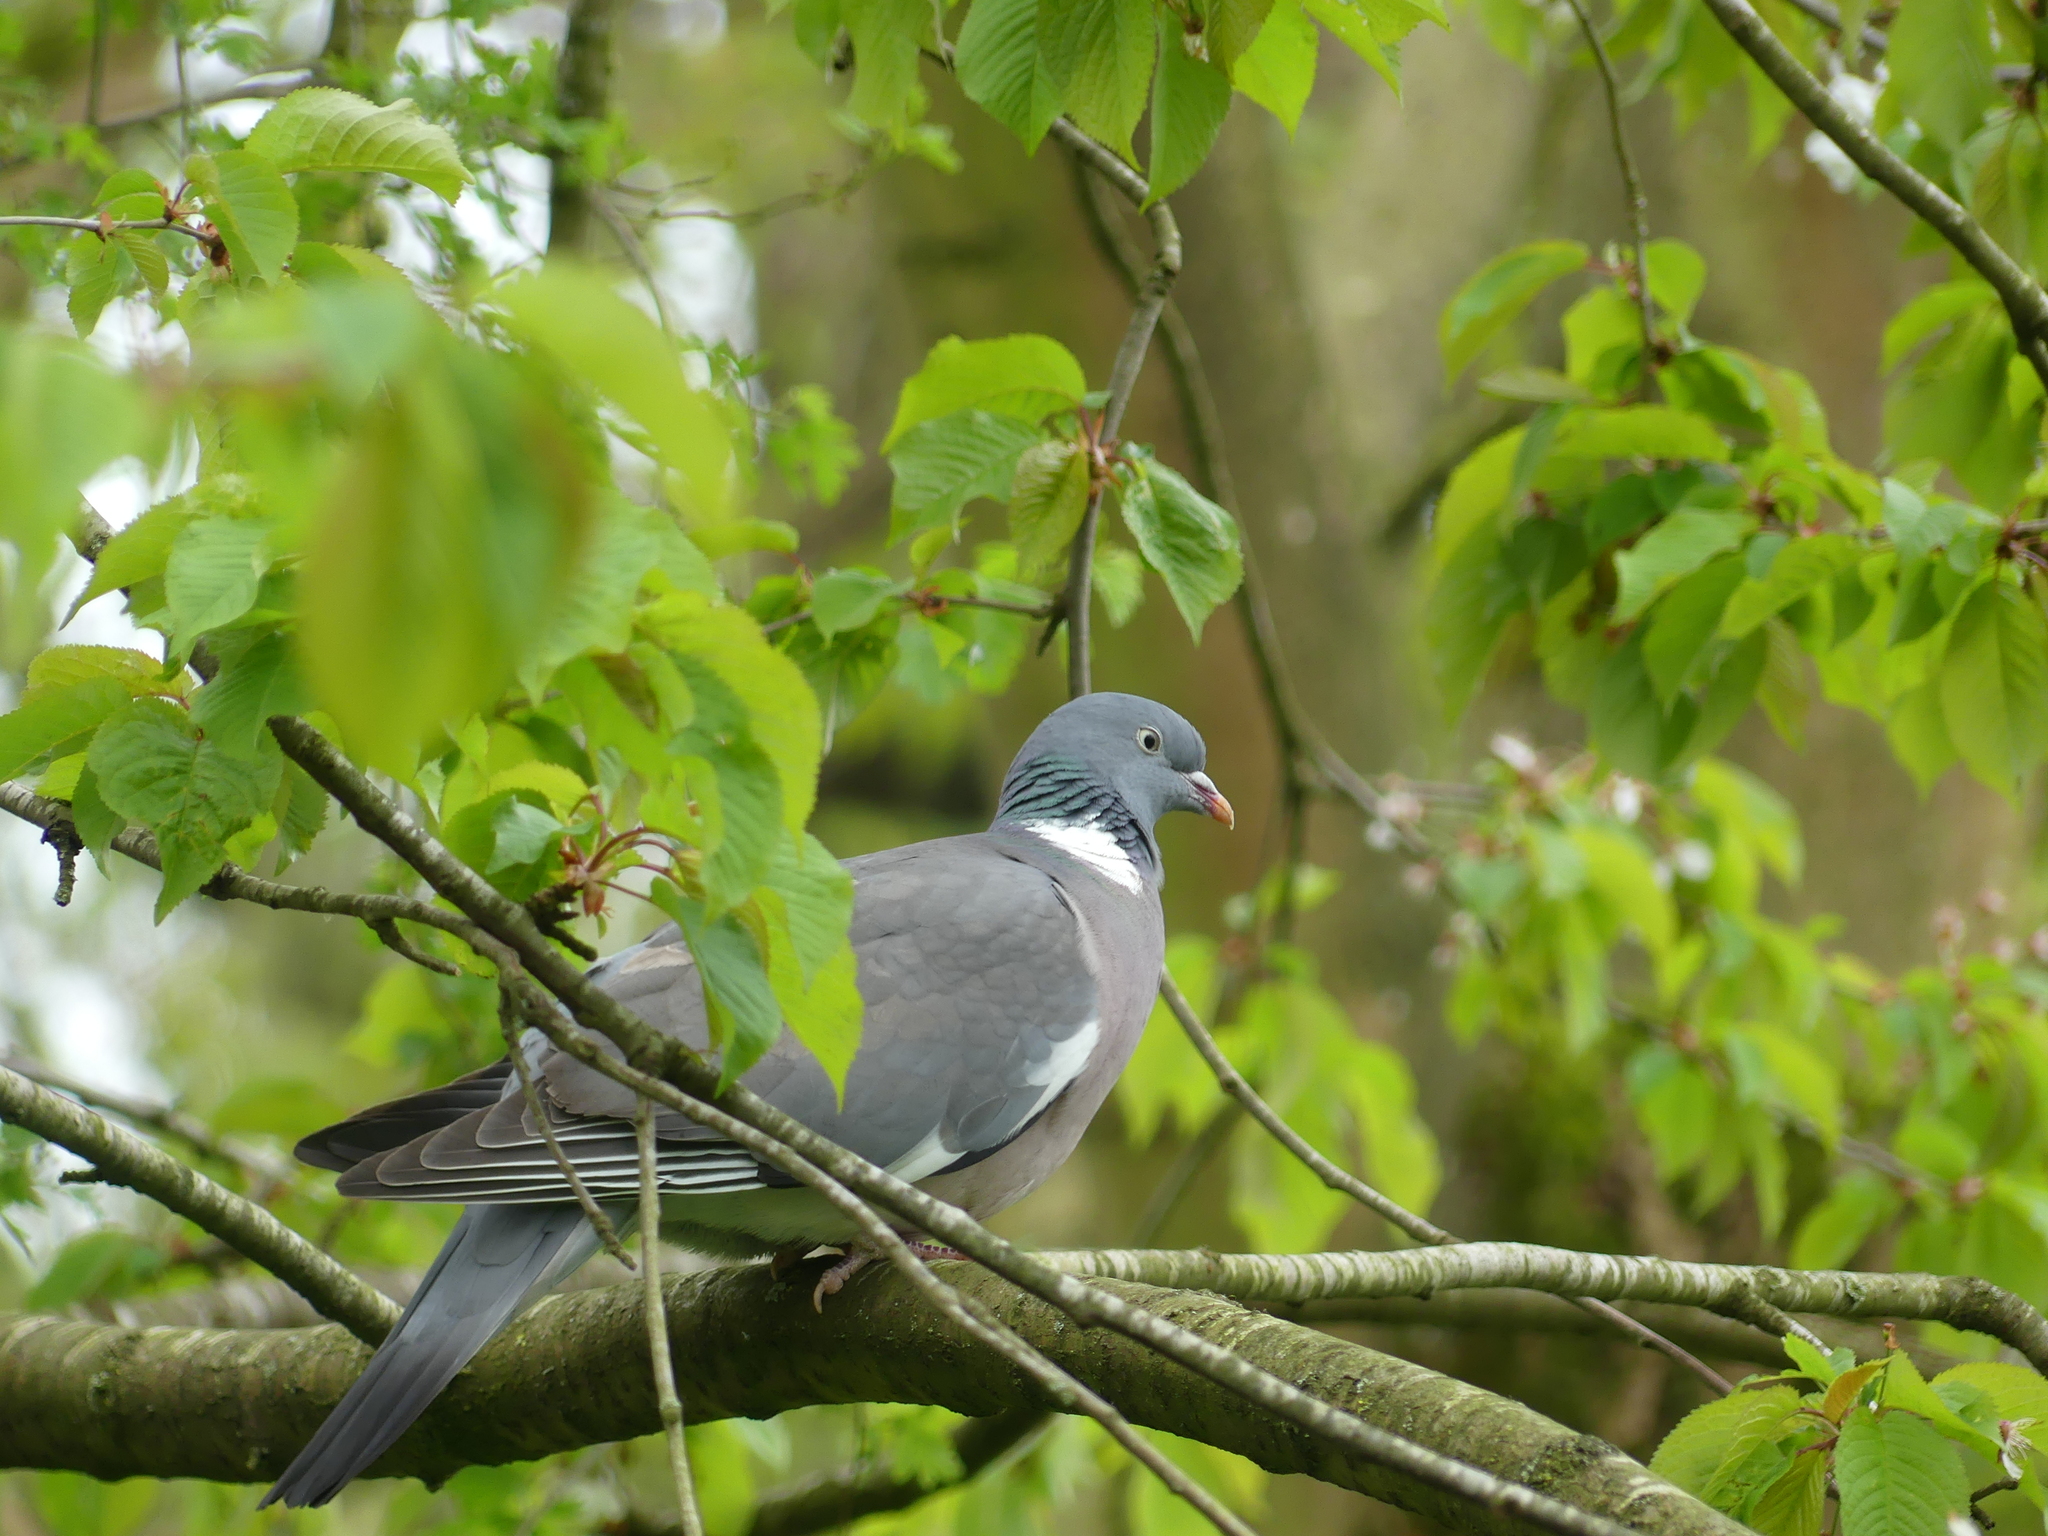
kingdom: Animalia
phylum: Chordata
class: Aves
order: Columbiformes
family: Columbidae
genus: Columba
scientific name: Columba palumbus
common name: Common wood pigeon
